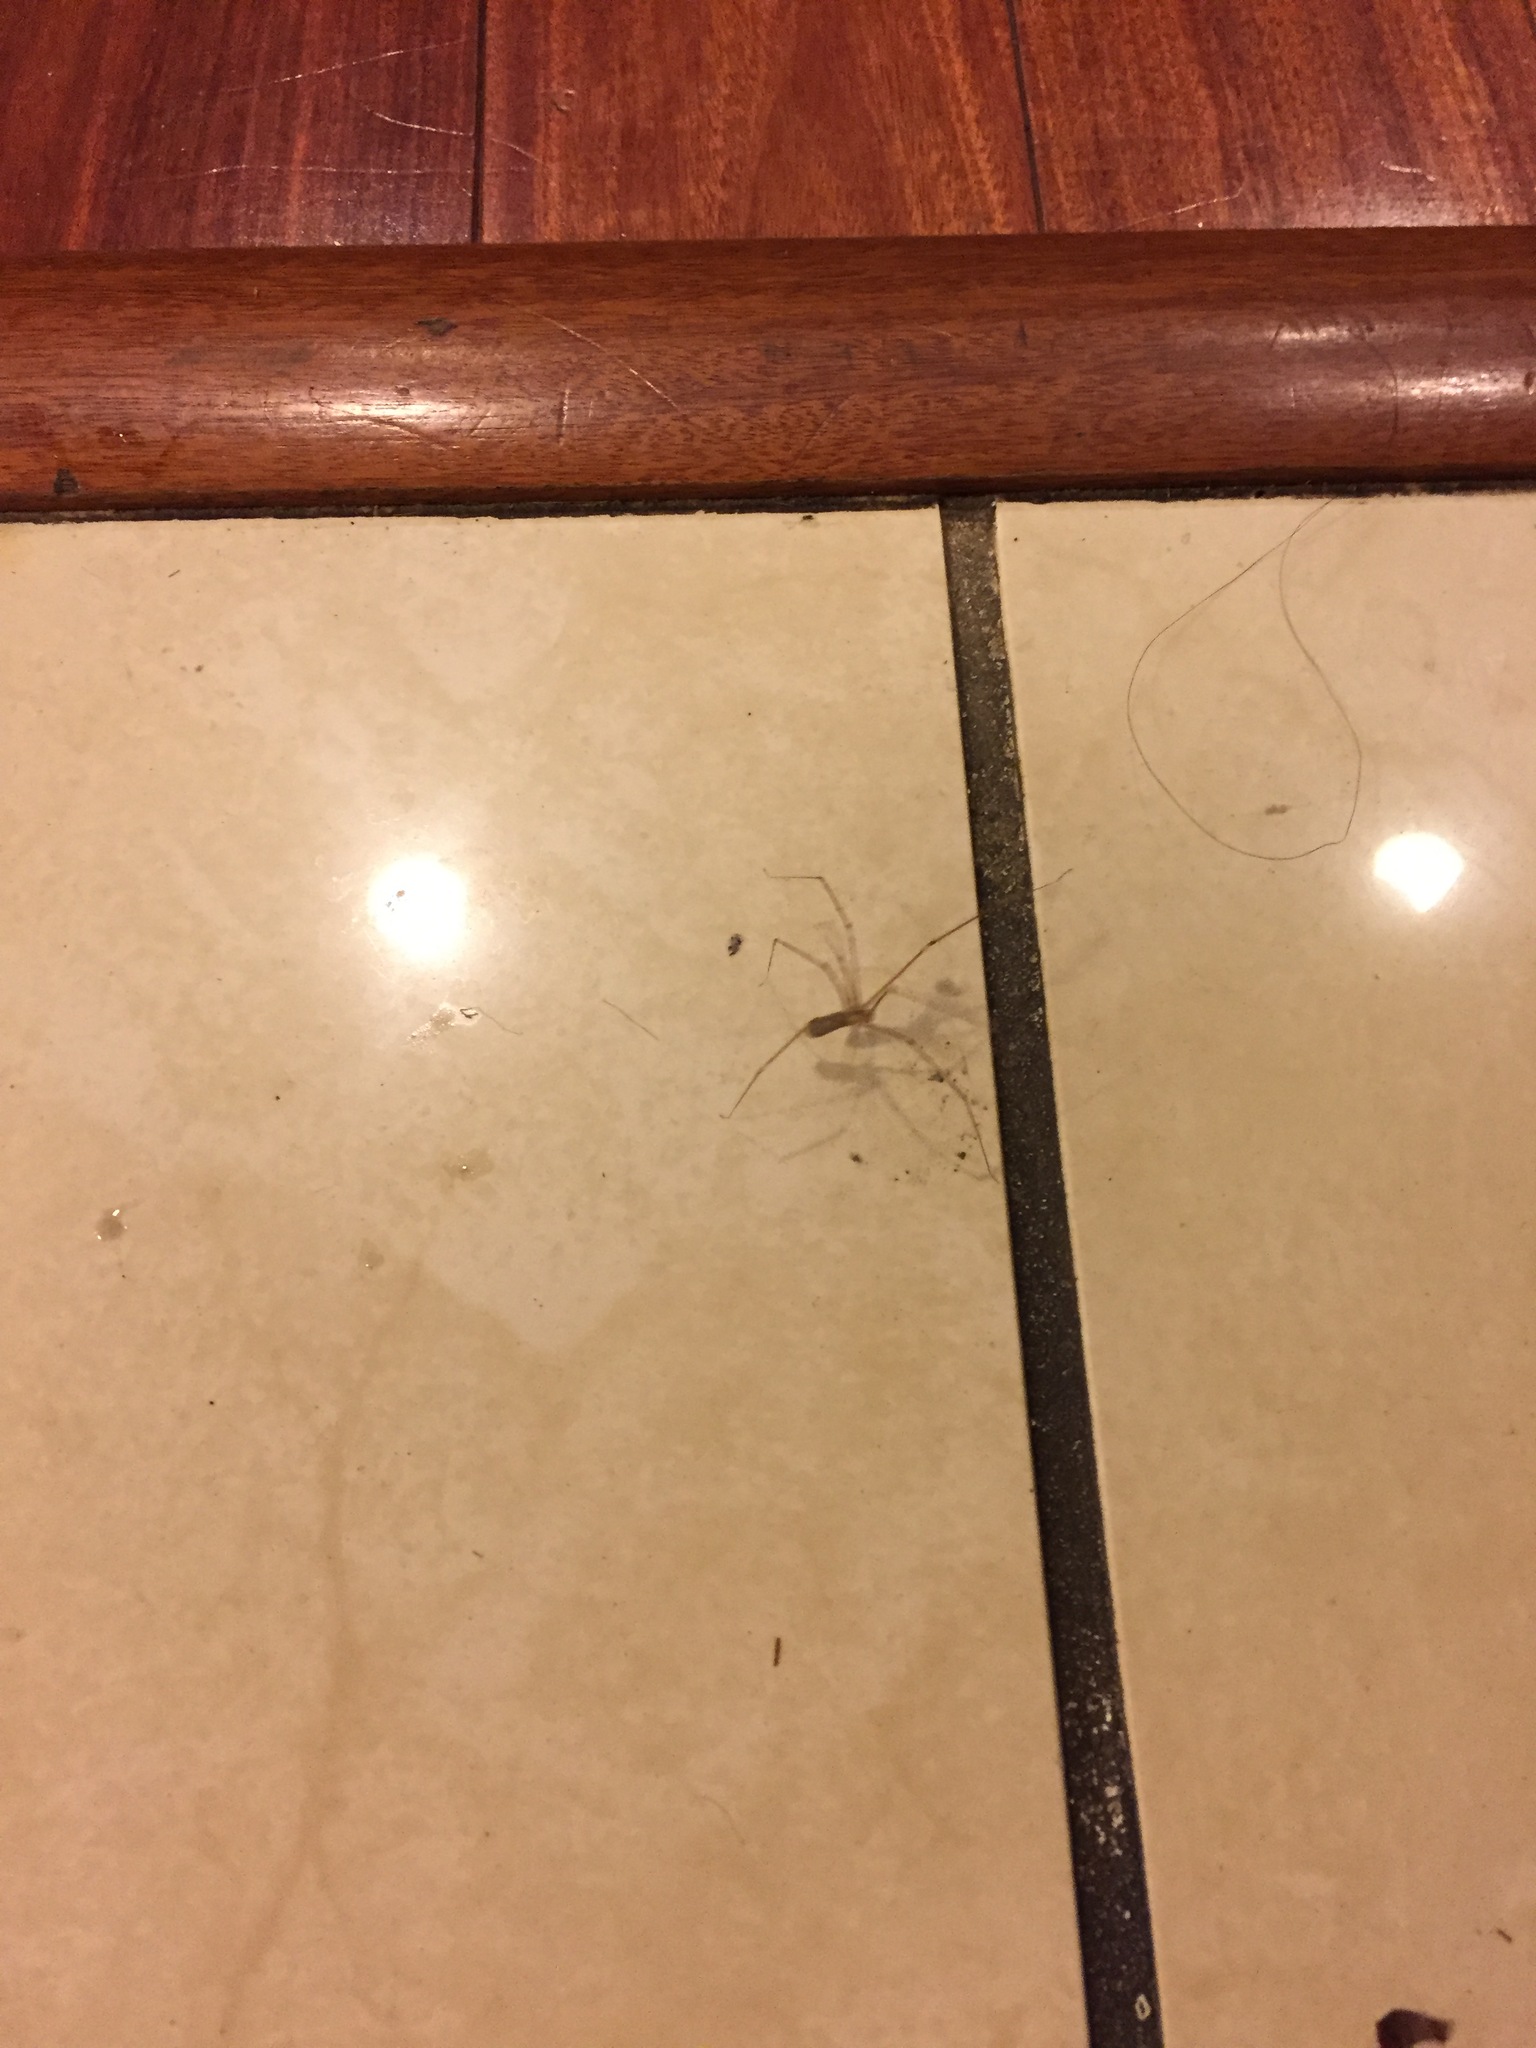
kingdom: Animalia
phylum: Arthropoda
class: Arachnida
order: Araneae
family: Pholcidae
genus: Pholcus
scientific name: Pholcus phalangioides
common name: Longbodied cellar spider
